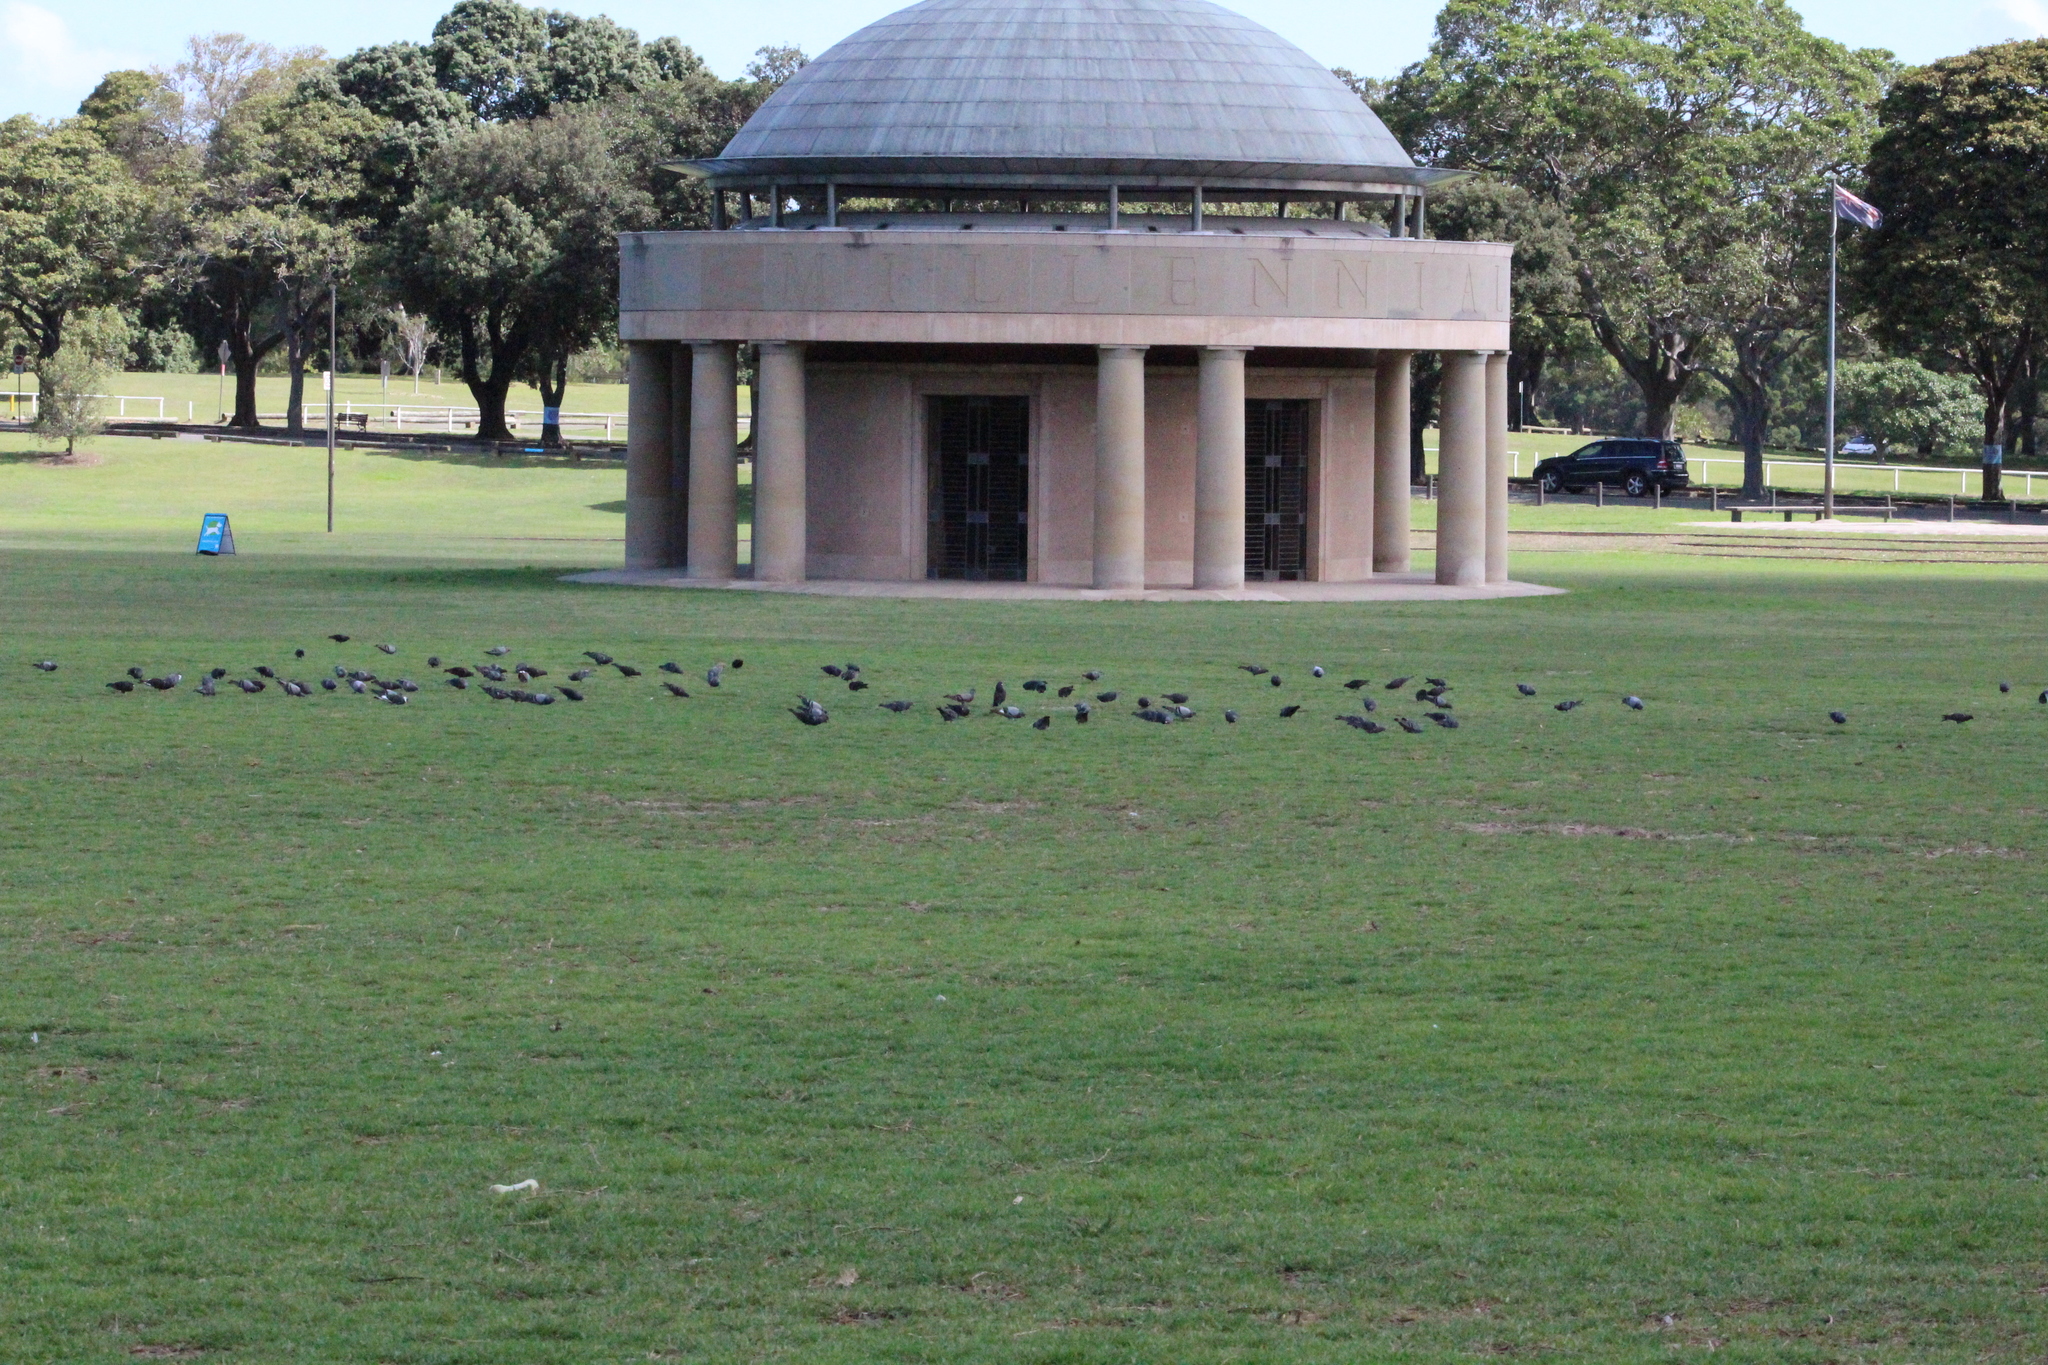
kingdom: Animalia
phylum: Chordata
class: Aves
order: Columbiformes
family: Columbidae
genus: Columba
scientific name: Columba livia
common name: Rock pigeon
